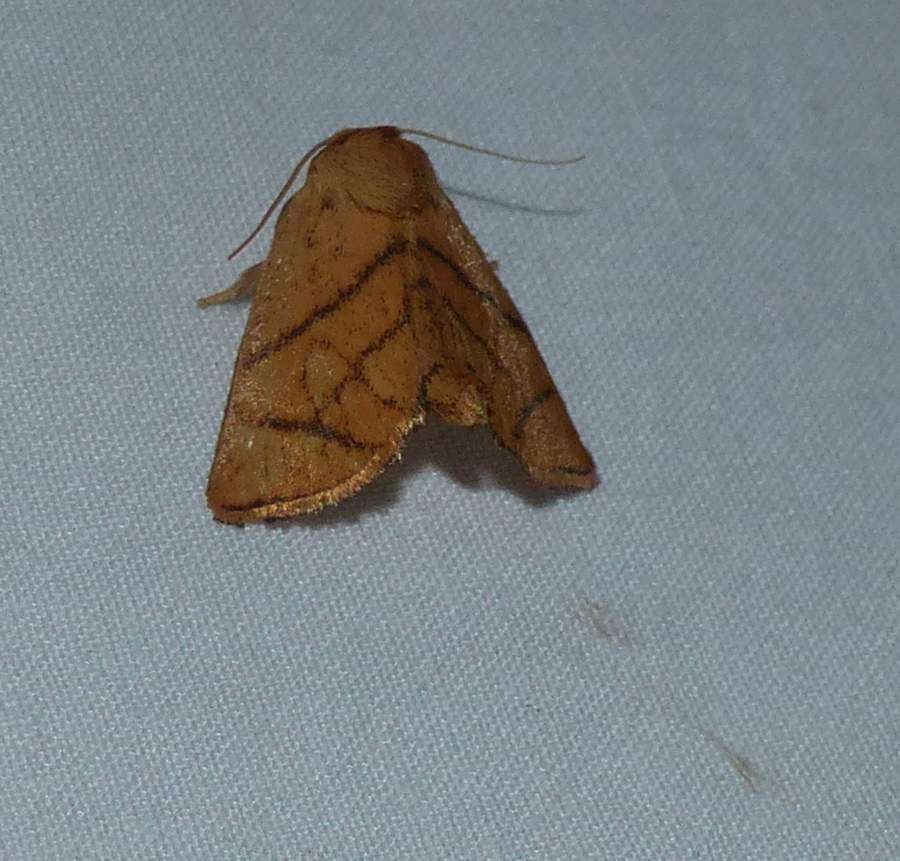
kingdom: Animalia
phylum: Arthropoda
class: Insecta
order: Lepidoptera
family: Limacodidae
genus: Apoda
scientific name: Apoda y-inversa
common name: Yellow-collared slug moth
